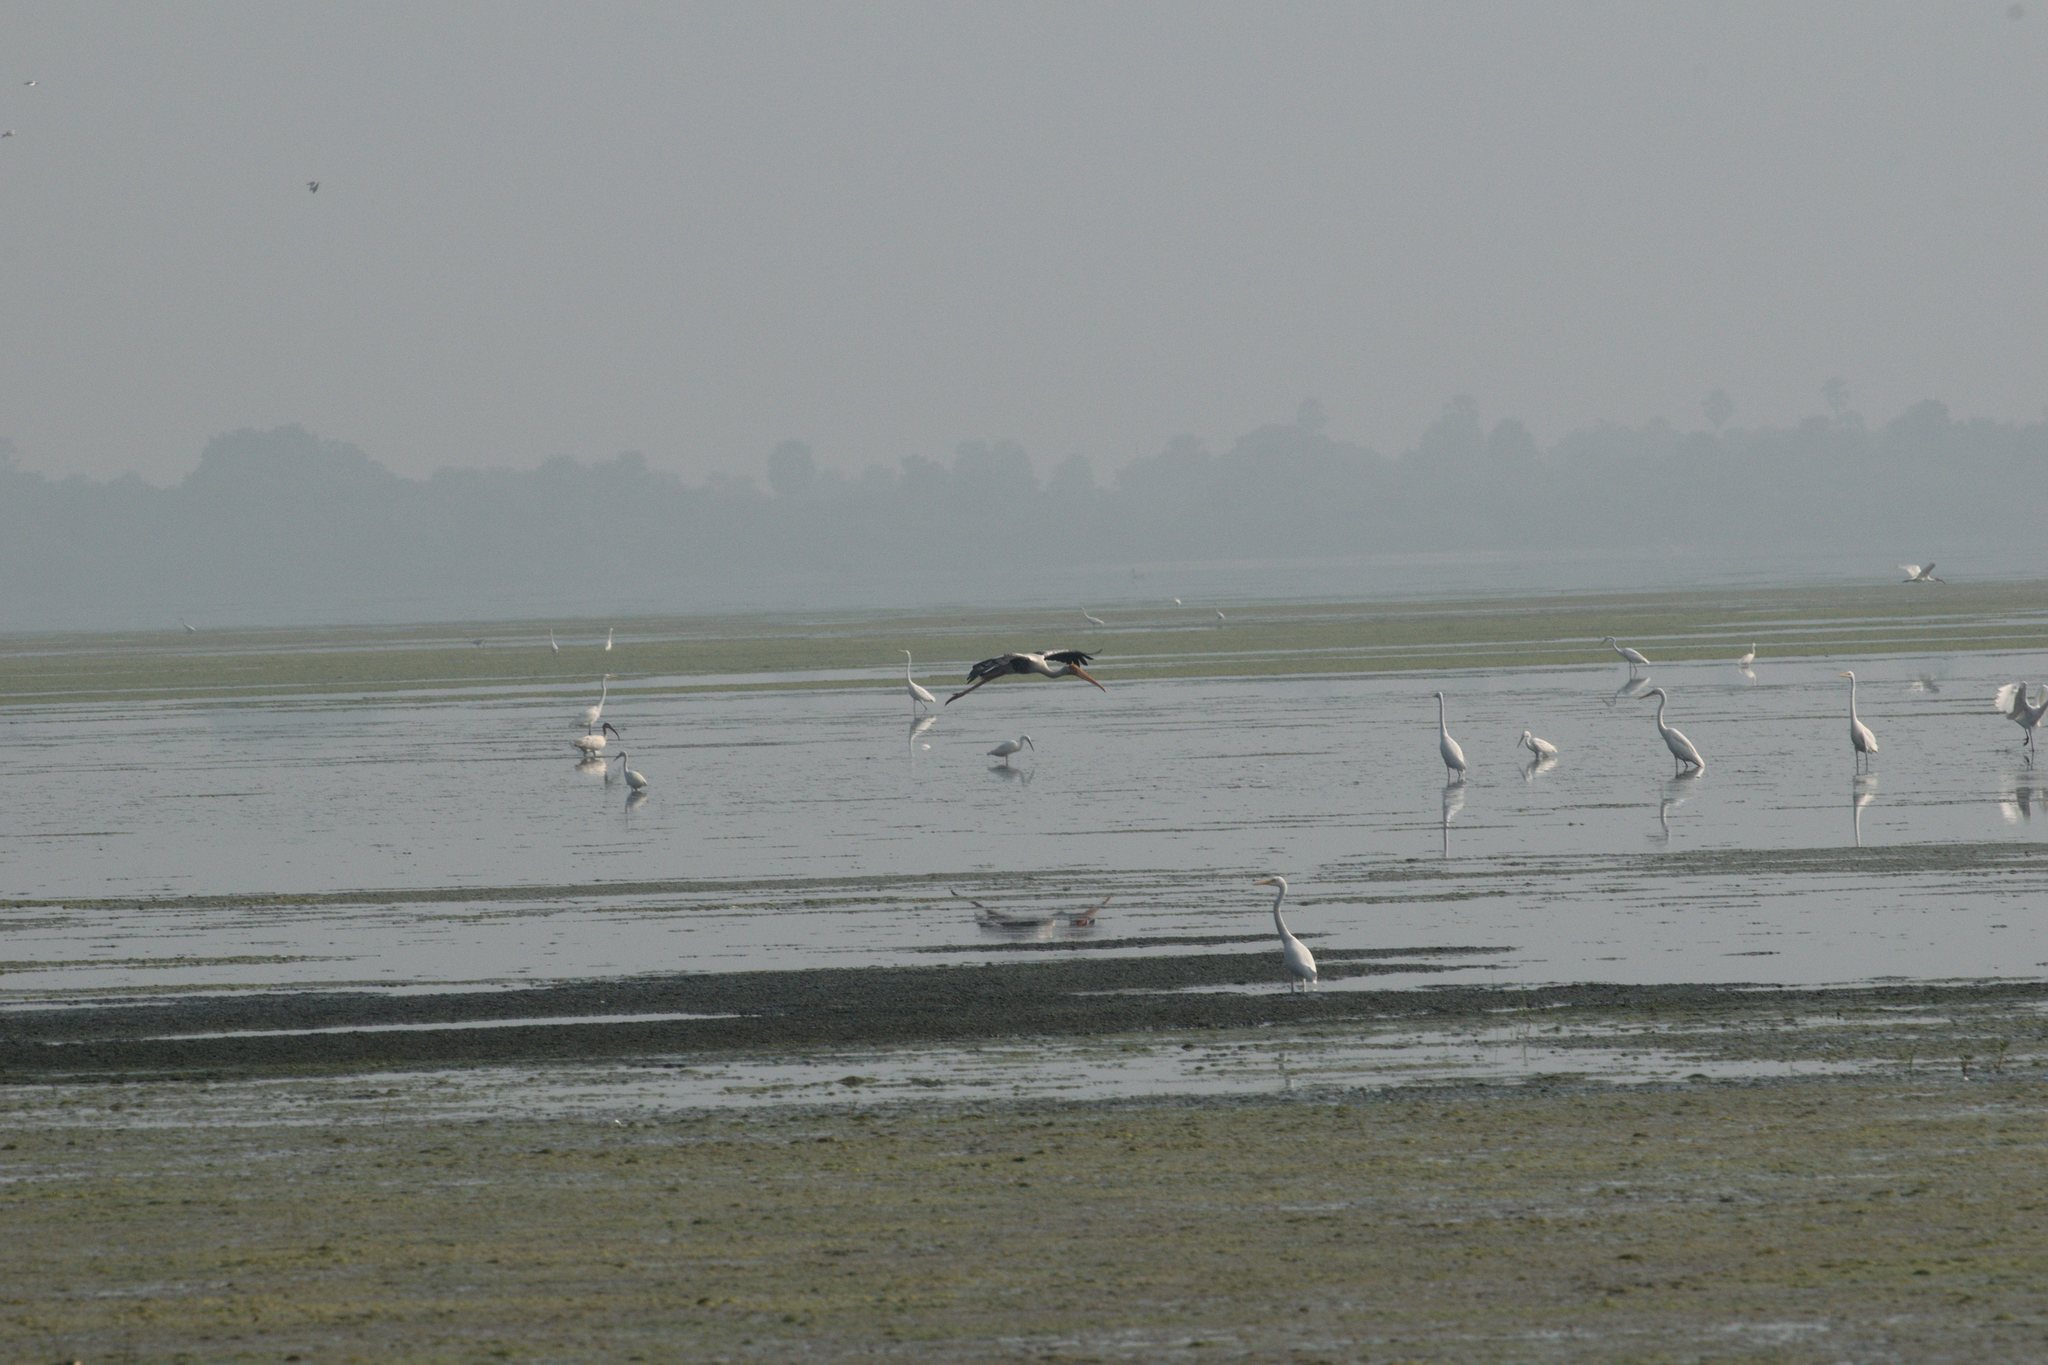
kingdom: Animalia
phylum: Chordata
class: Aves
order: Ciconiiformes
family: Ciconiidae
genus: Mycteria
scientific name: Mycteria leucocephala
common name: Painted stork
